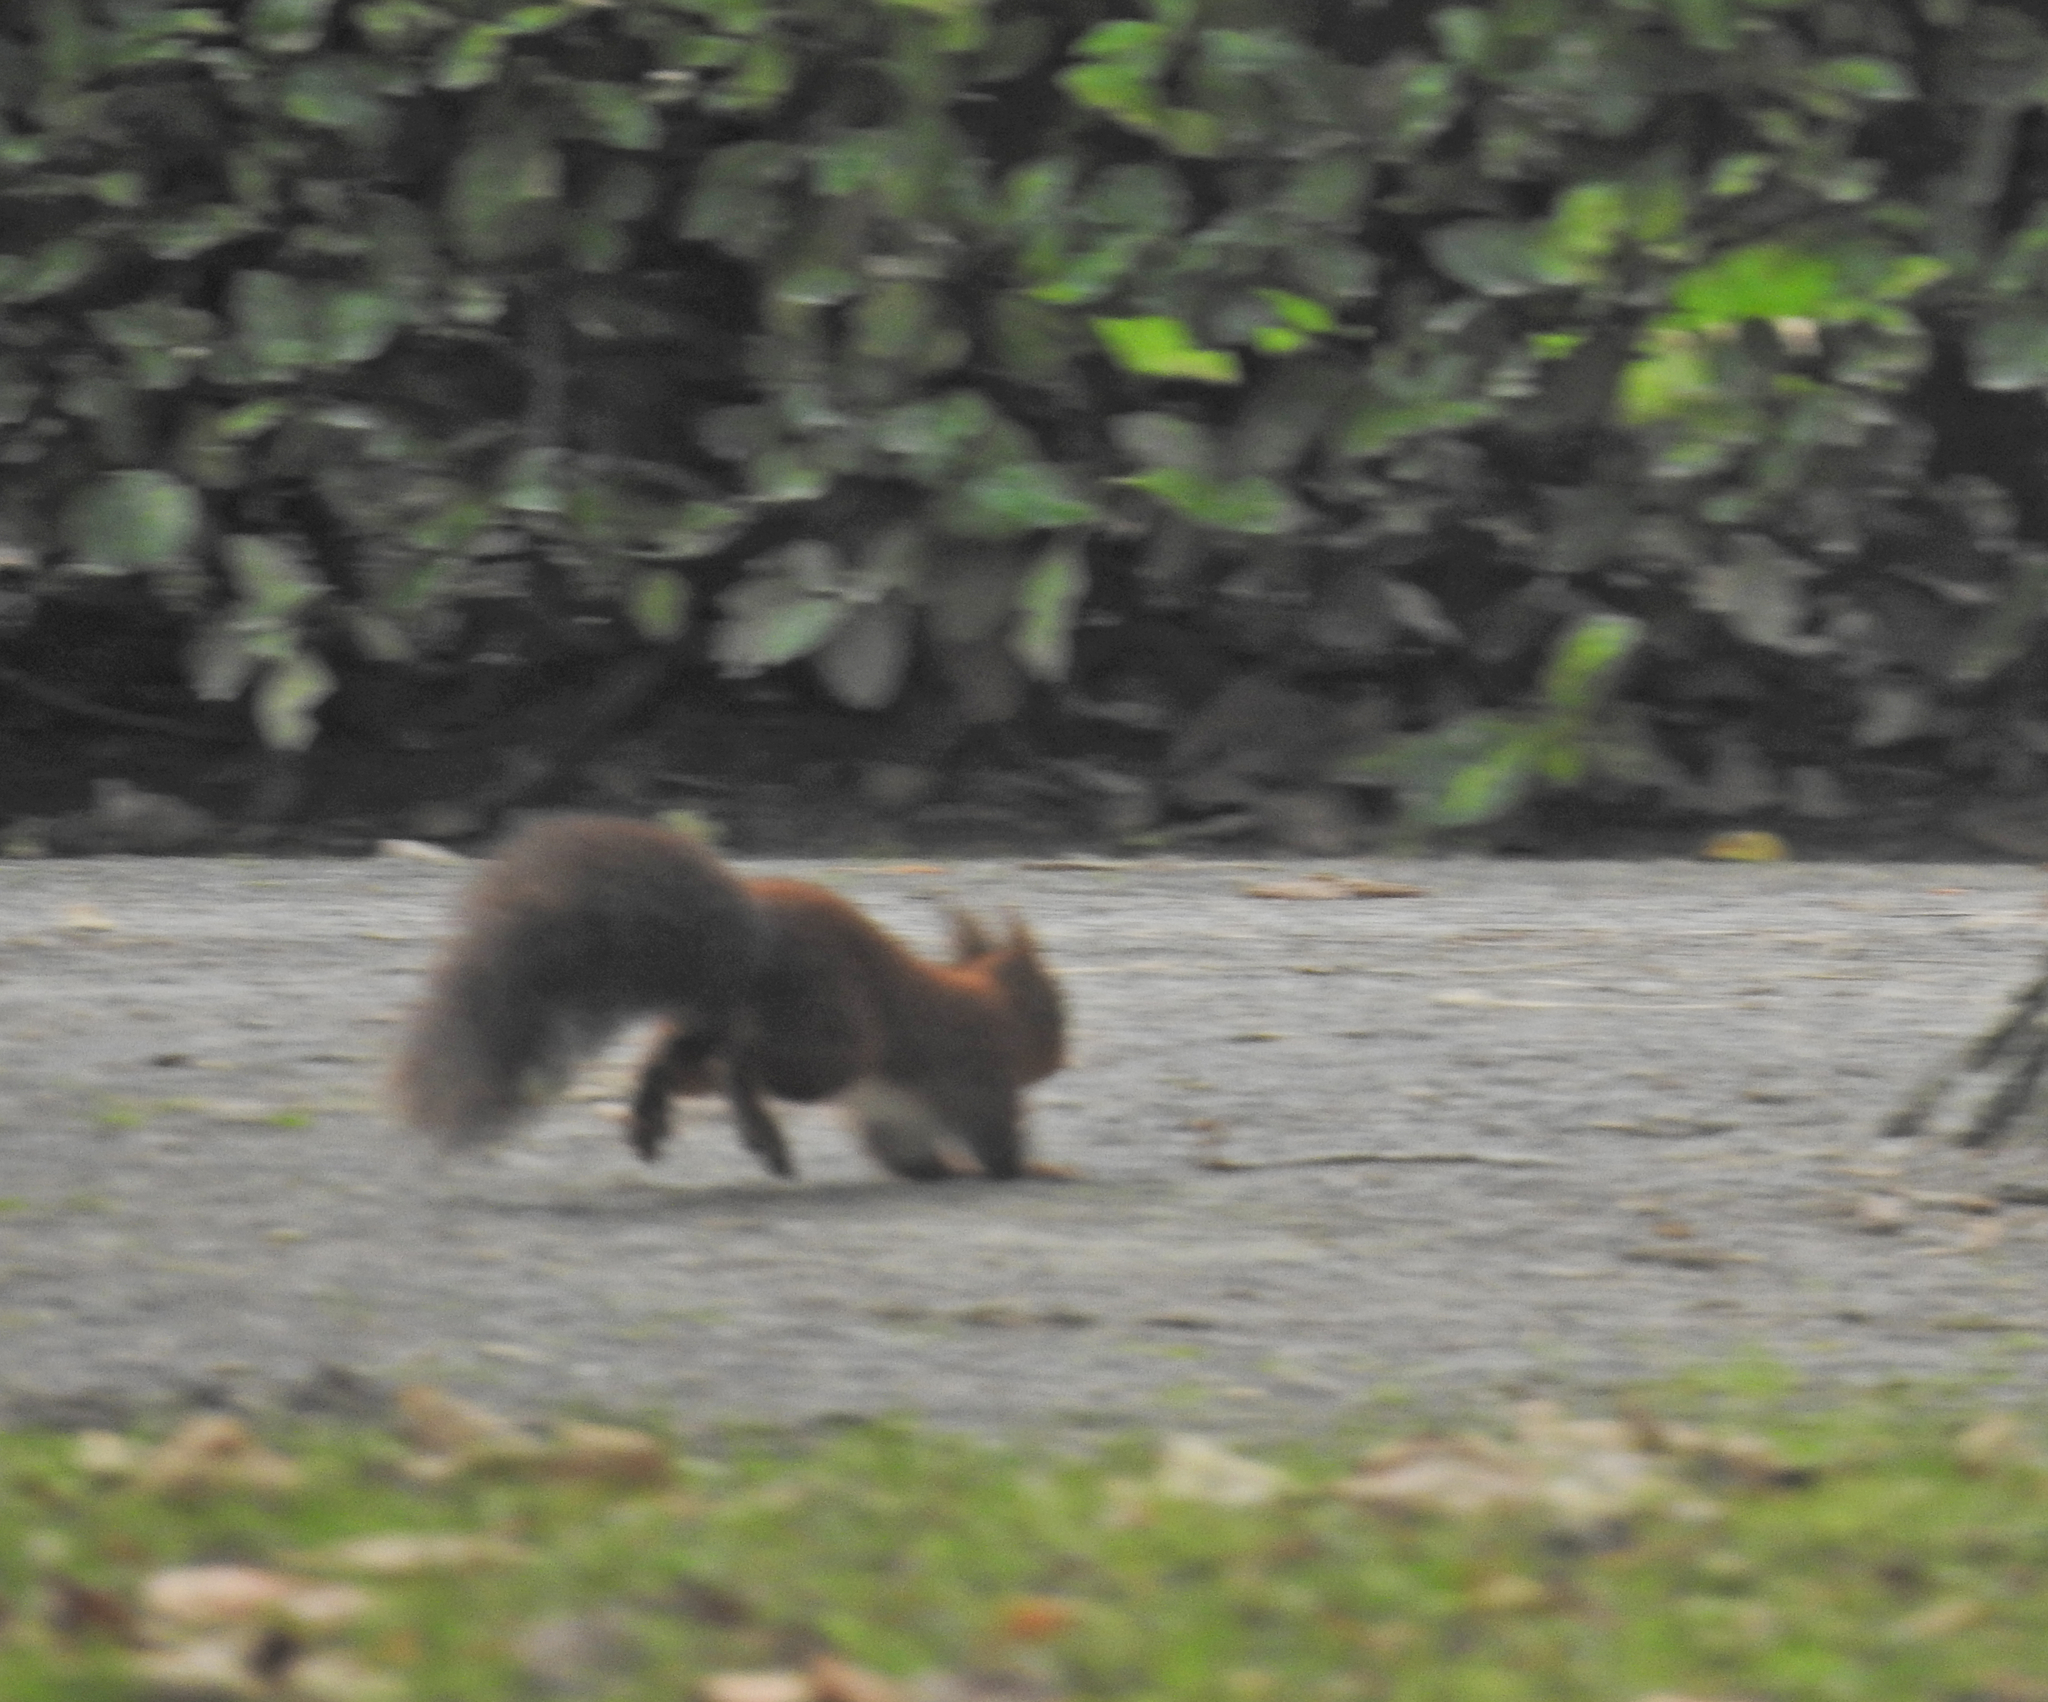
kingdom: Animalia
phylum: Chordata
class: Mammalia
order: Rodentia
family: Sciuridae
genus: Sciurus
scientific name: Sciurus vulgaris
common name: Eurasian red squirrel
